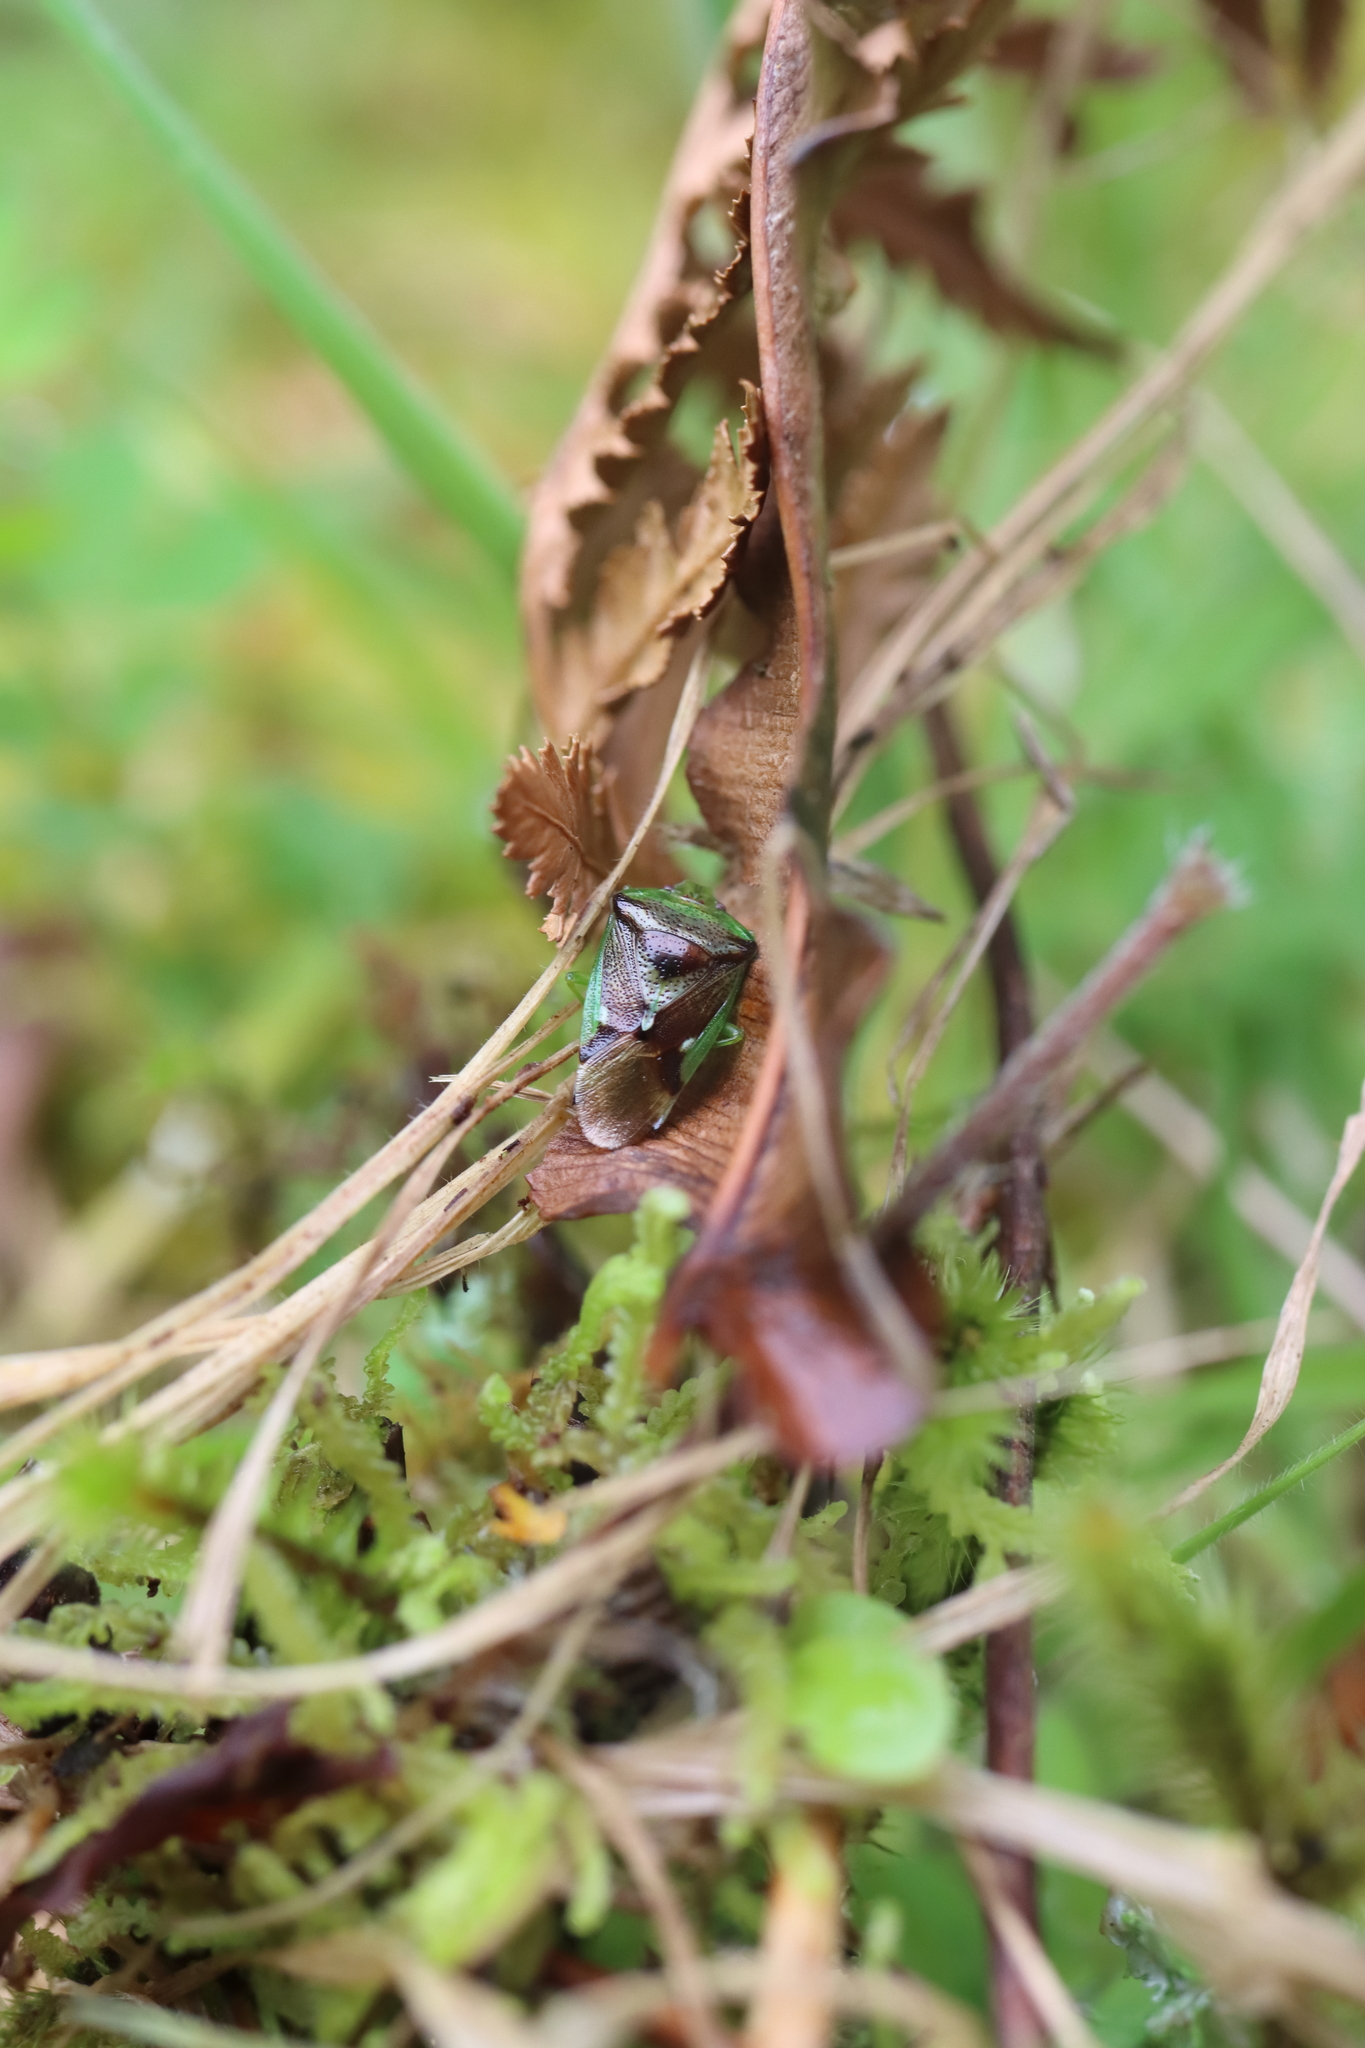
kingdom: Animalia
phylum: Arthropoda
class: Insecta
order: Hemiptera
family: Acanthosomatidae
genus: Oncacontias
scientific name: Oncacontias vittatus
